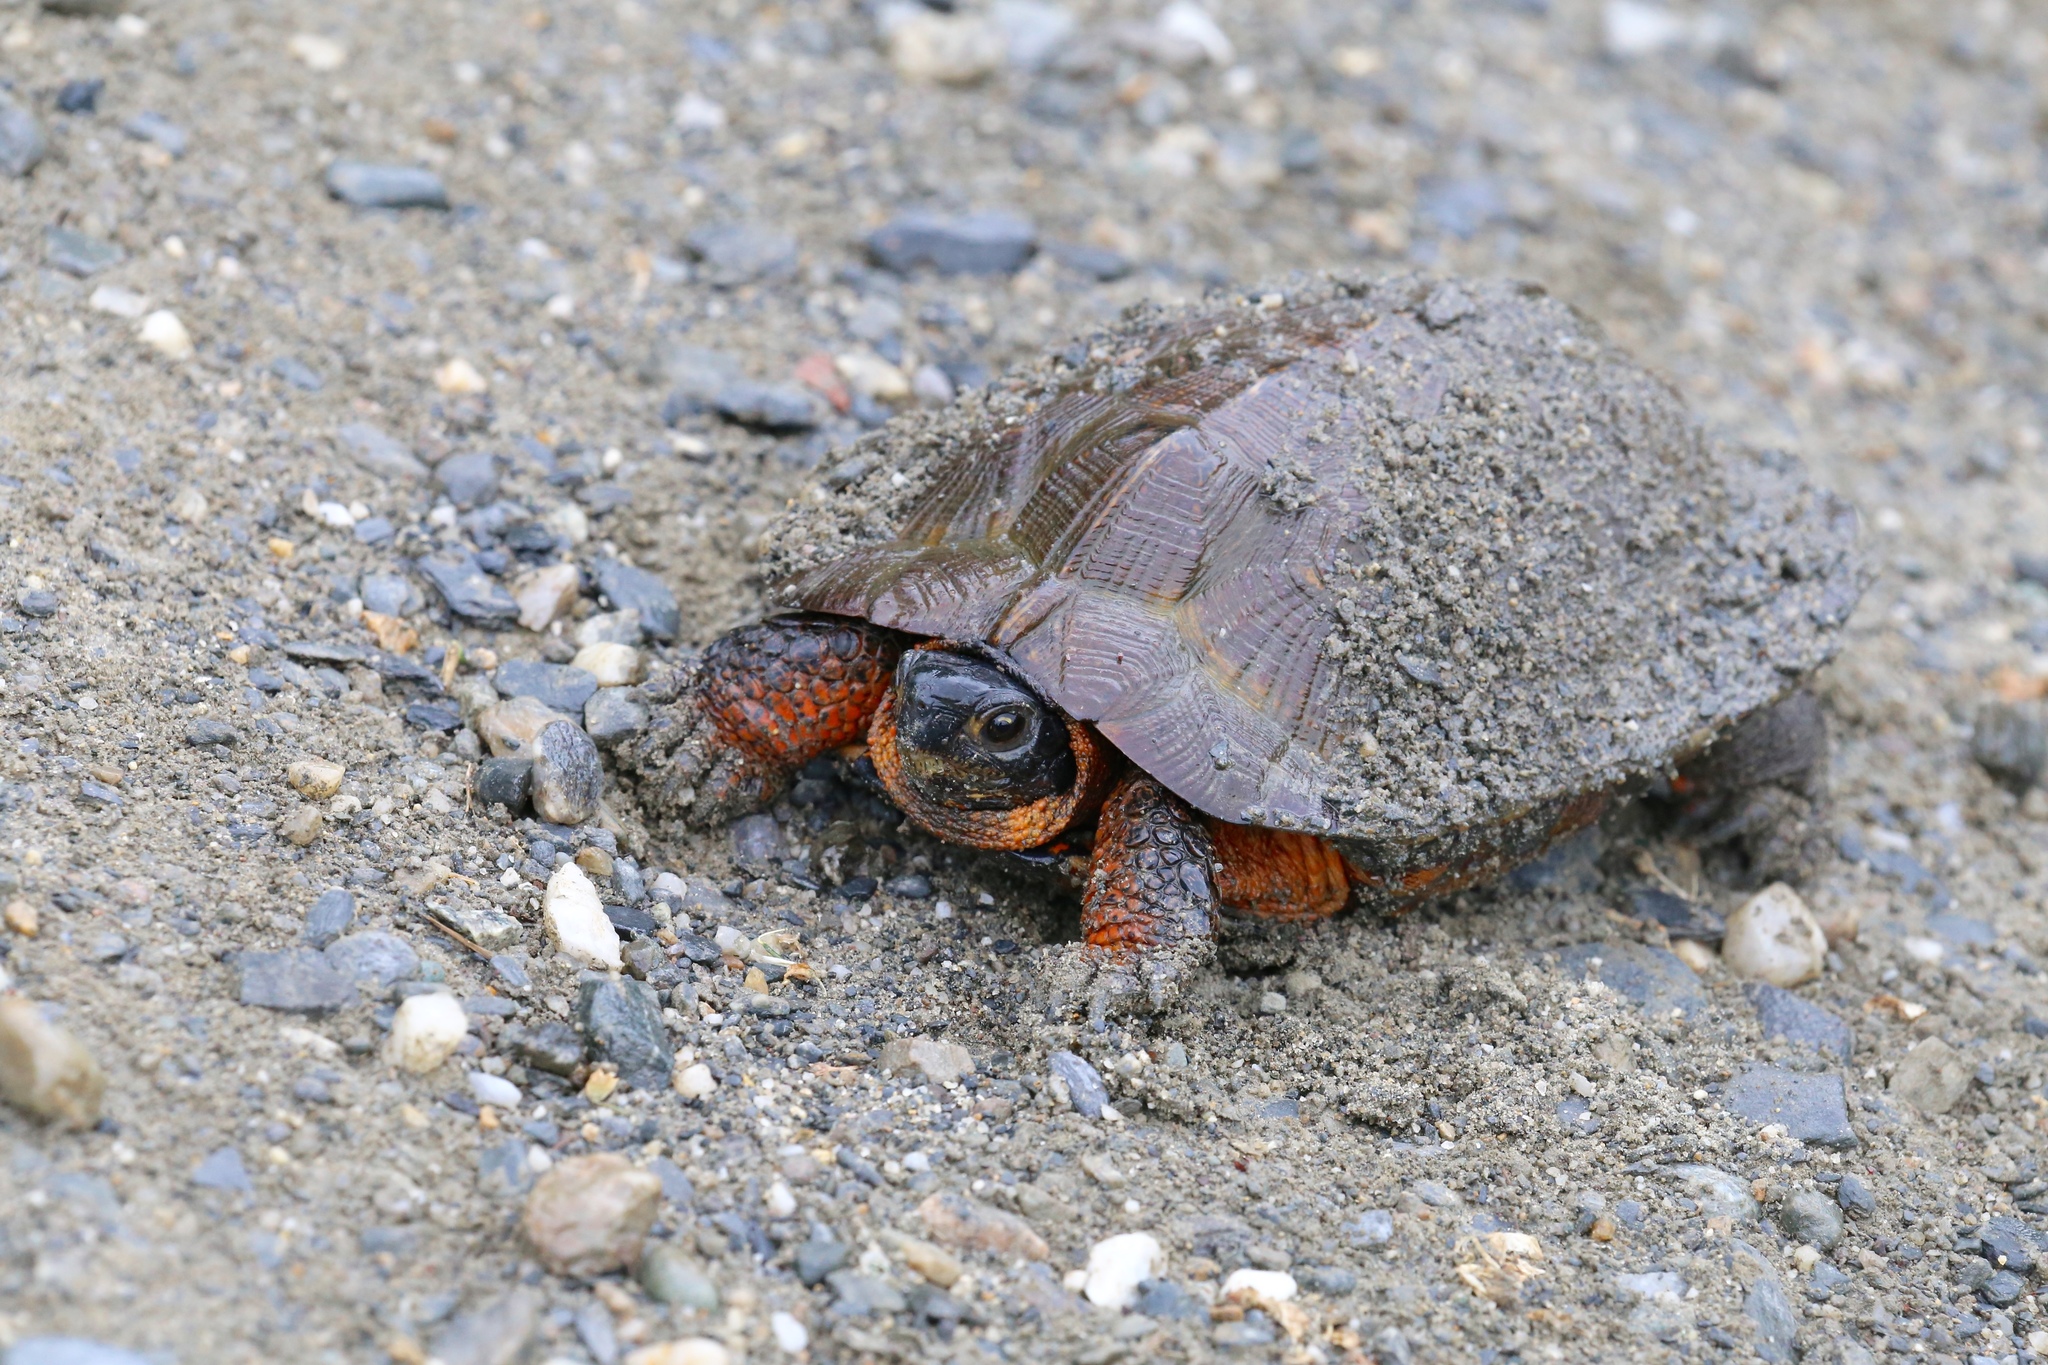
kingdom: Animalia
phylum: Chordata
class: Testudines
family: Emydidae
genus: Glyptemys
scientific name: Glyptemys insculpta
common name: Wood turtle
